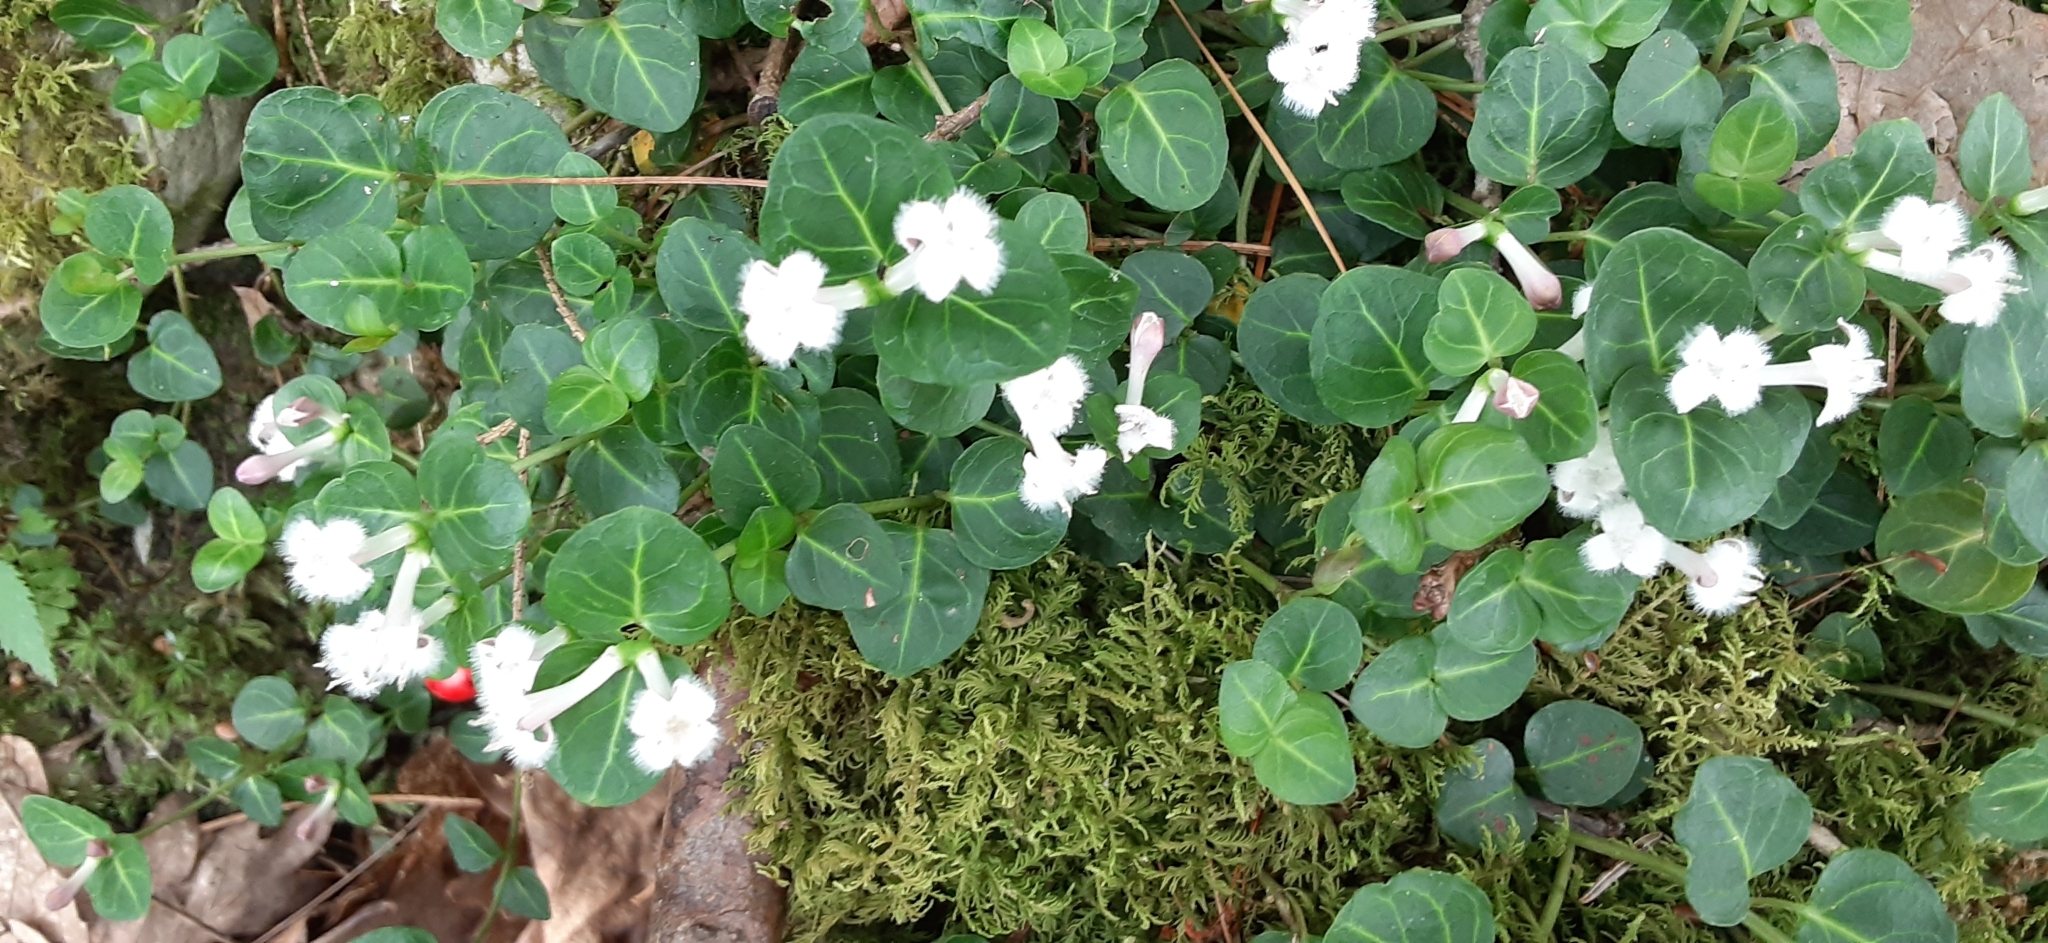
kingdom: Plantae
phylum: Tracheophyta
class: Magnoliopsida
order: Gentianales
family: Rubiaceae
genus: Mitchella
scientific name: Mitchella repens
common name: Partridge-berry
